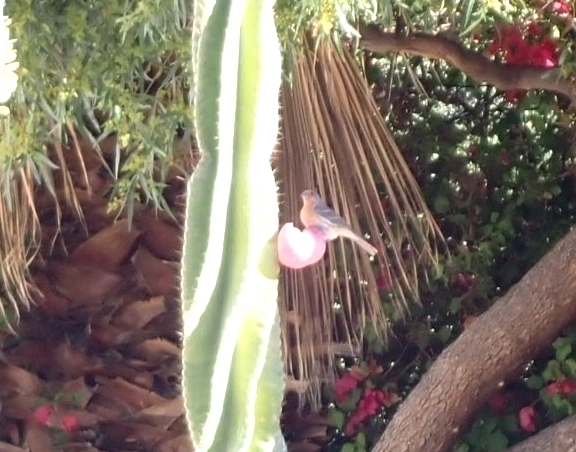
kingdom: Animalia
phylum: Chordata
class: Aves
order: Passeriformes
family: Fringillidae
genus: Haemorhous
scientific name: Haemorhous mexicanus
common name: House finch
